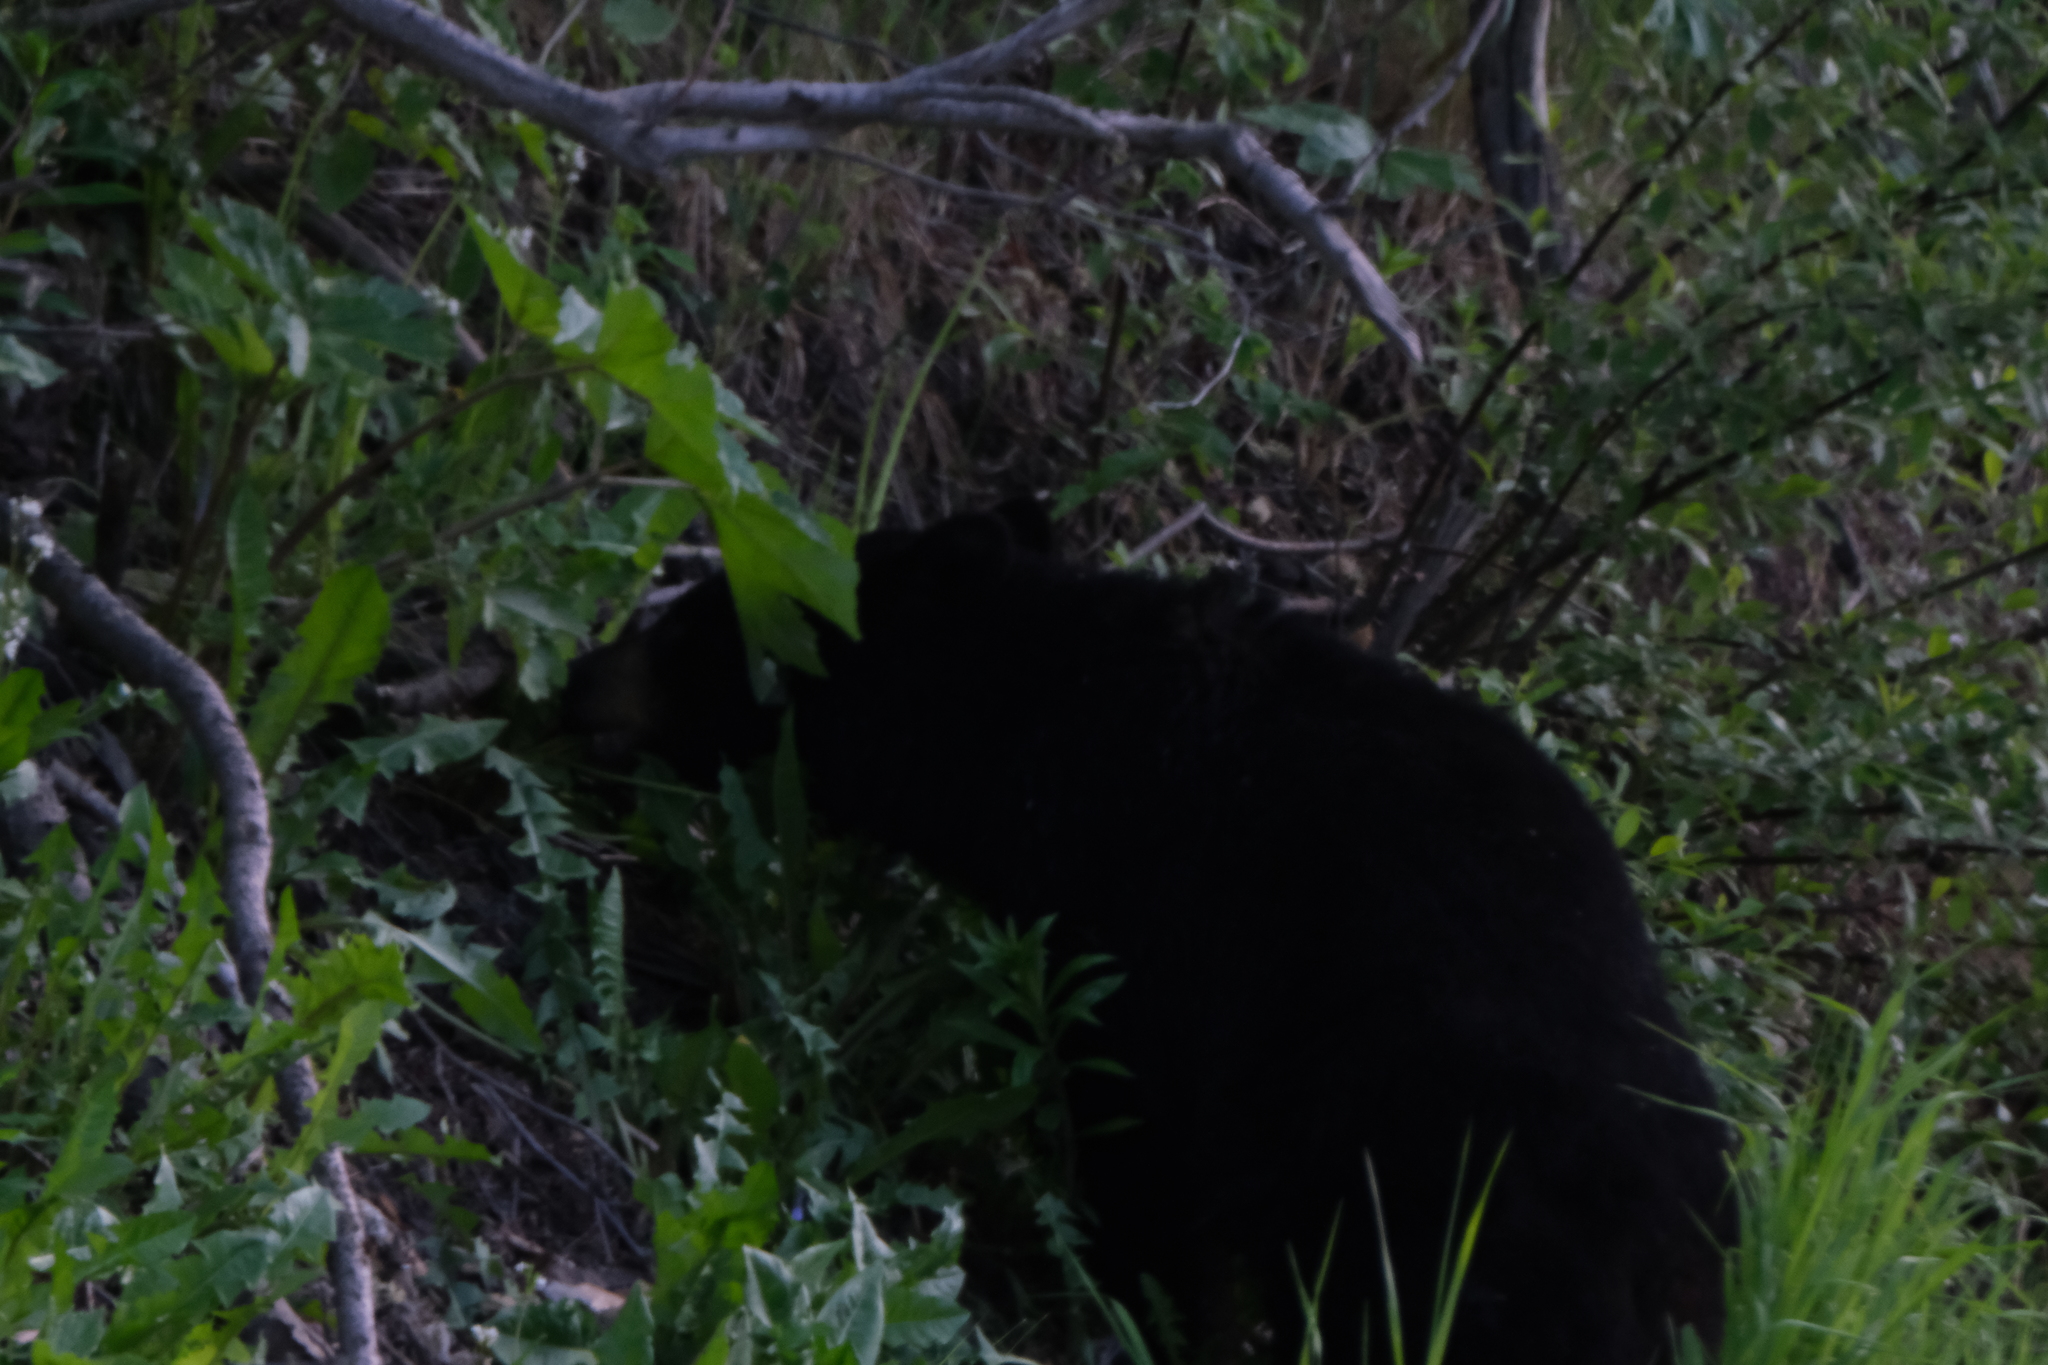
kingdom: Animalia
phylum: Chordata
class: Mammalia
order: Carnivora
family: Ursidae
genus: Ursus
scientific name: Ursus americanus
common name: American black bear
